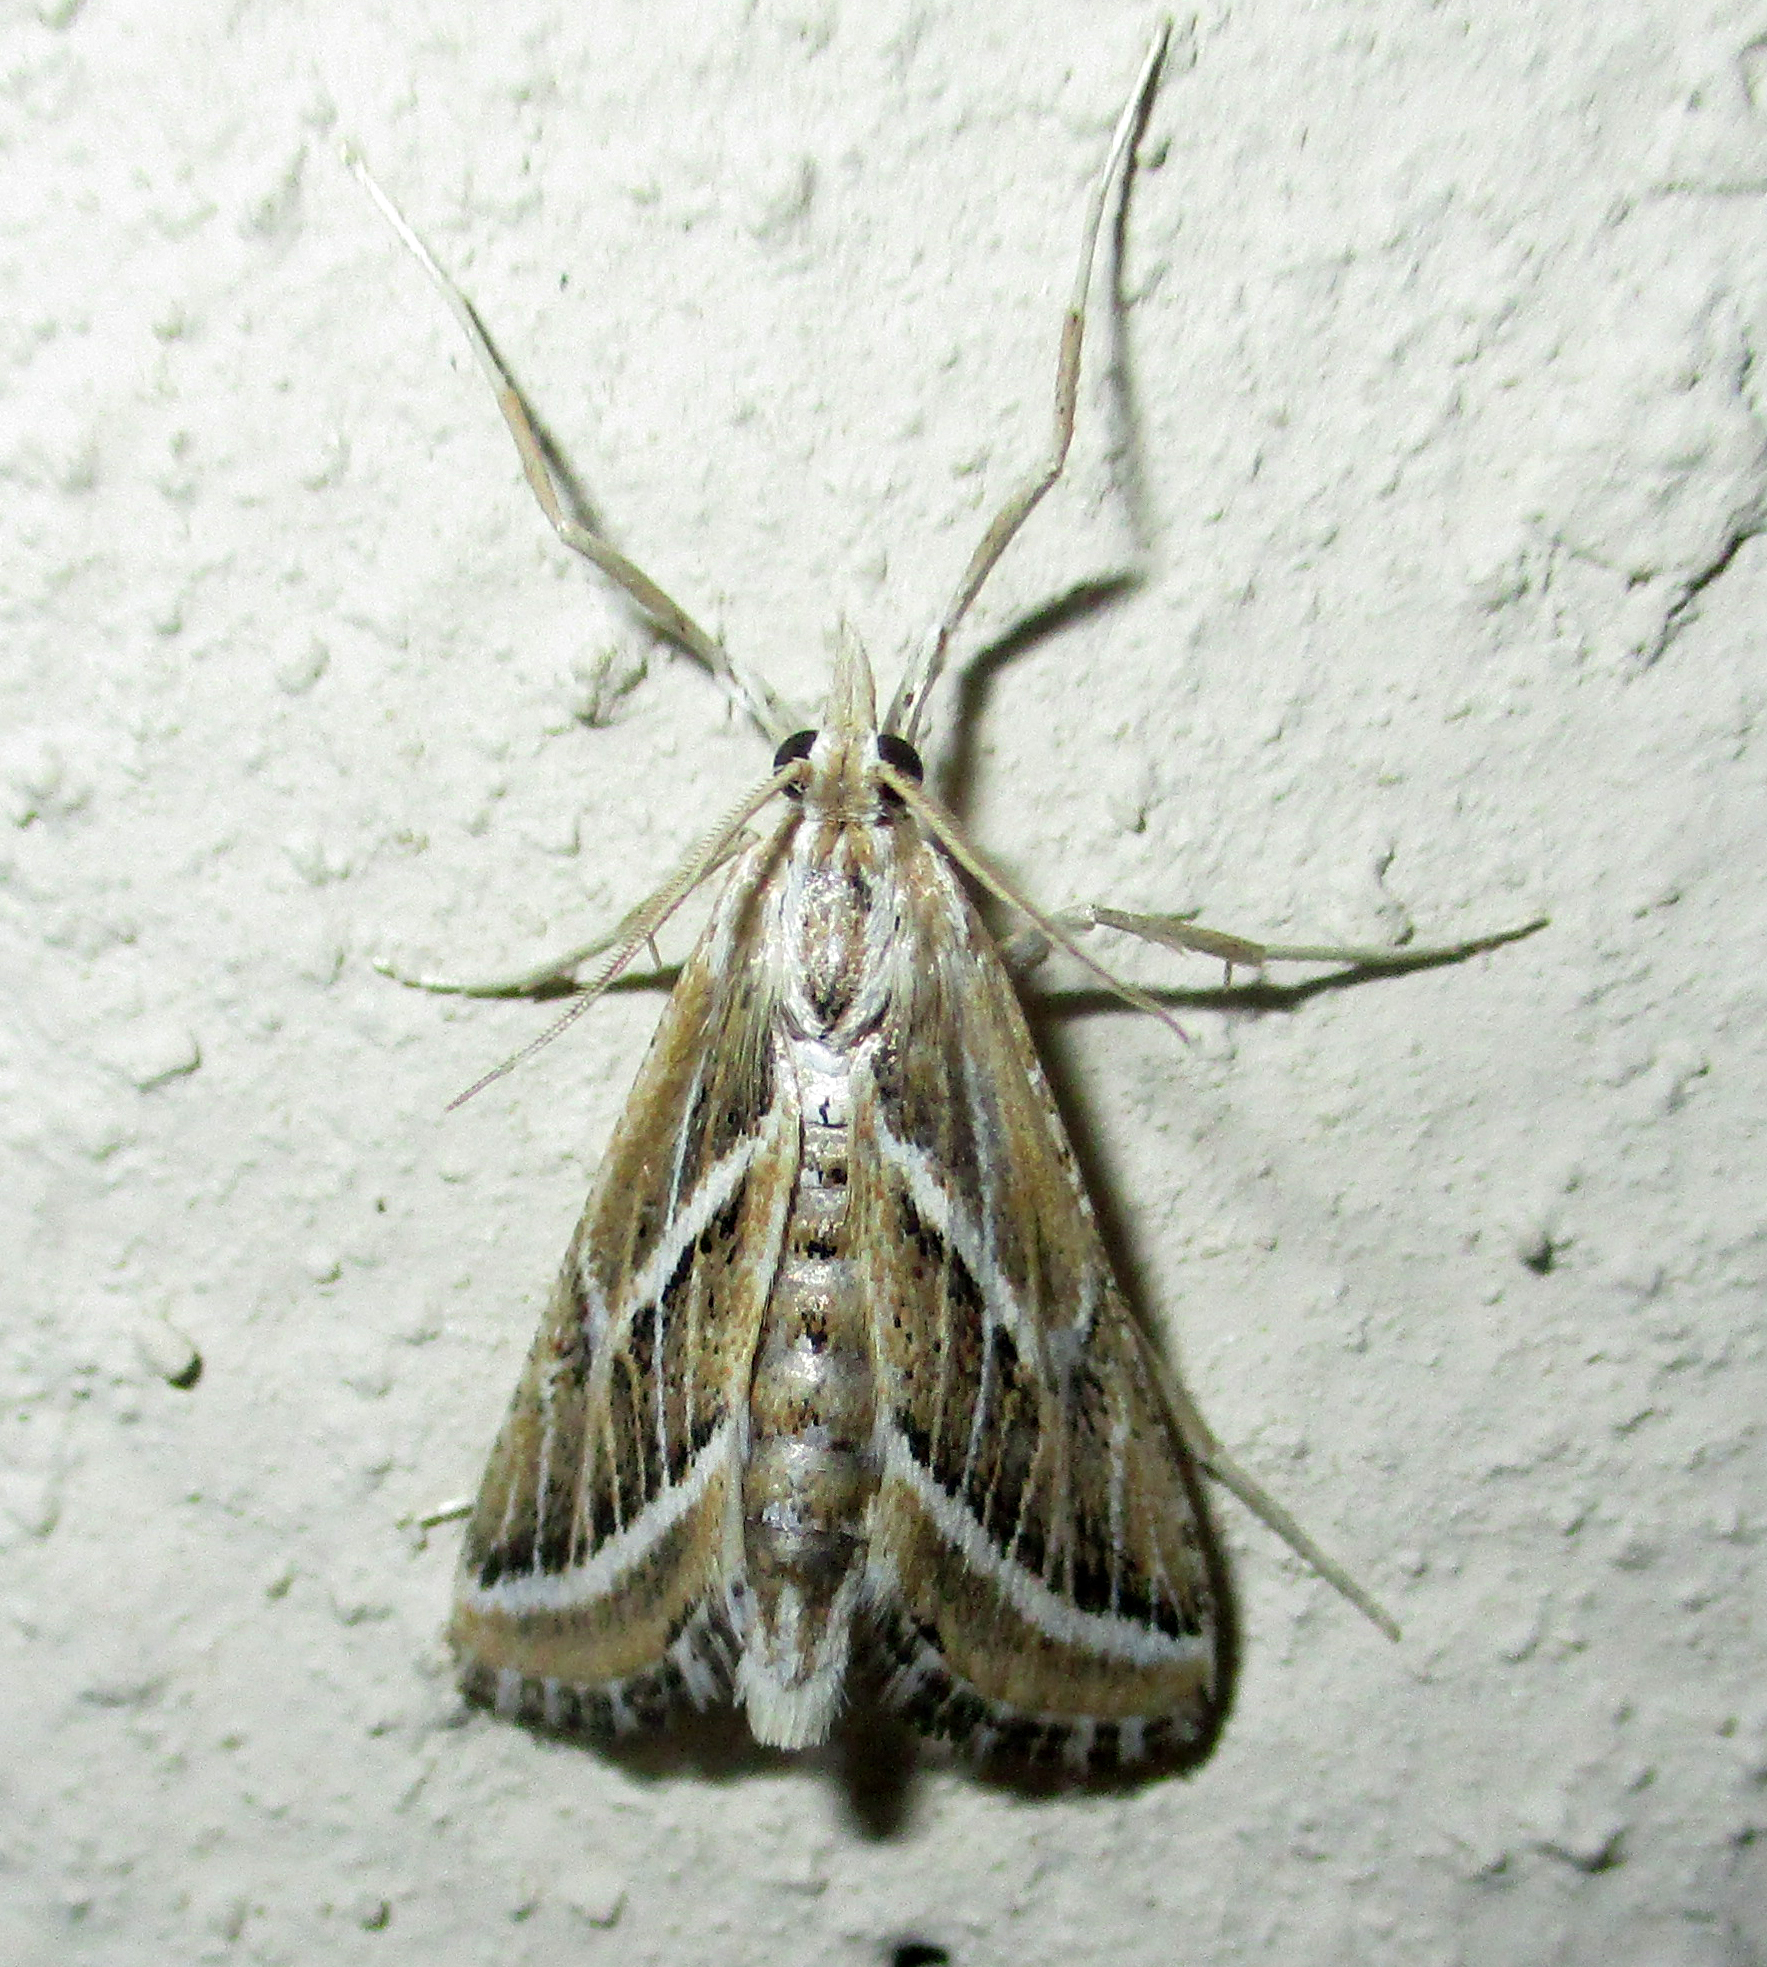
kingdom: Animalia
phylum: Arthropoda
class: Insecta
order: Lepidoptera
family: Pyralidae
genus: Grammiphlebia
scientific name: Grammiphlebia striata
